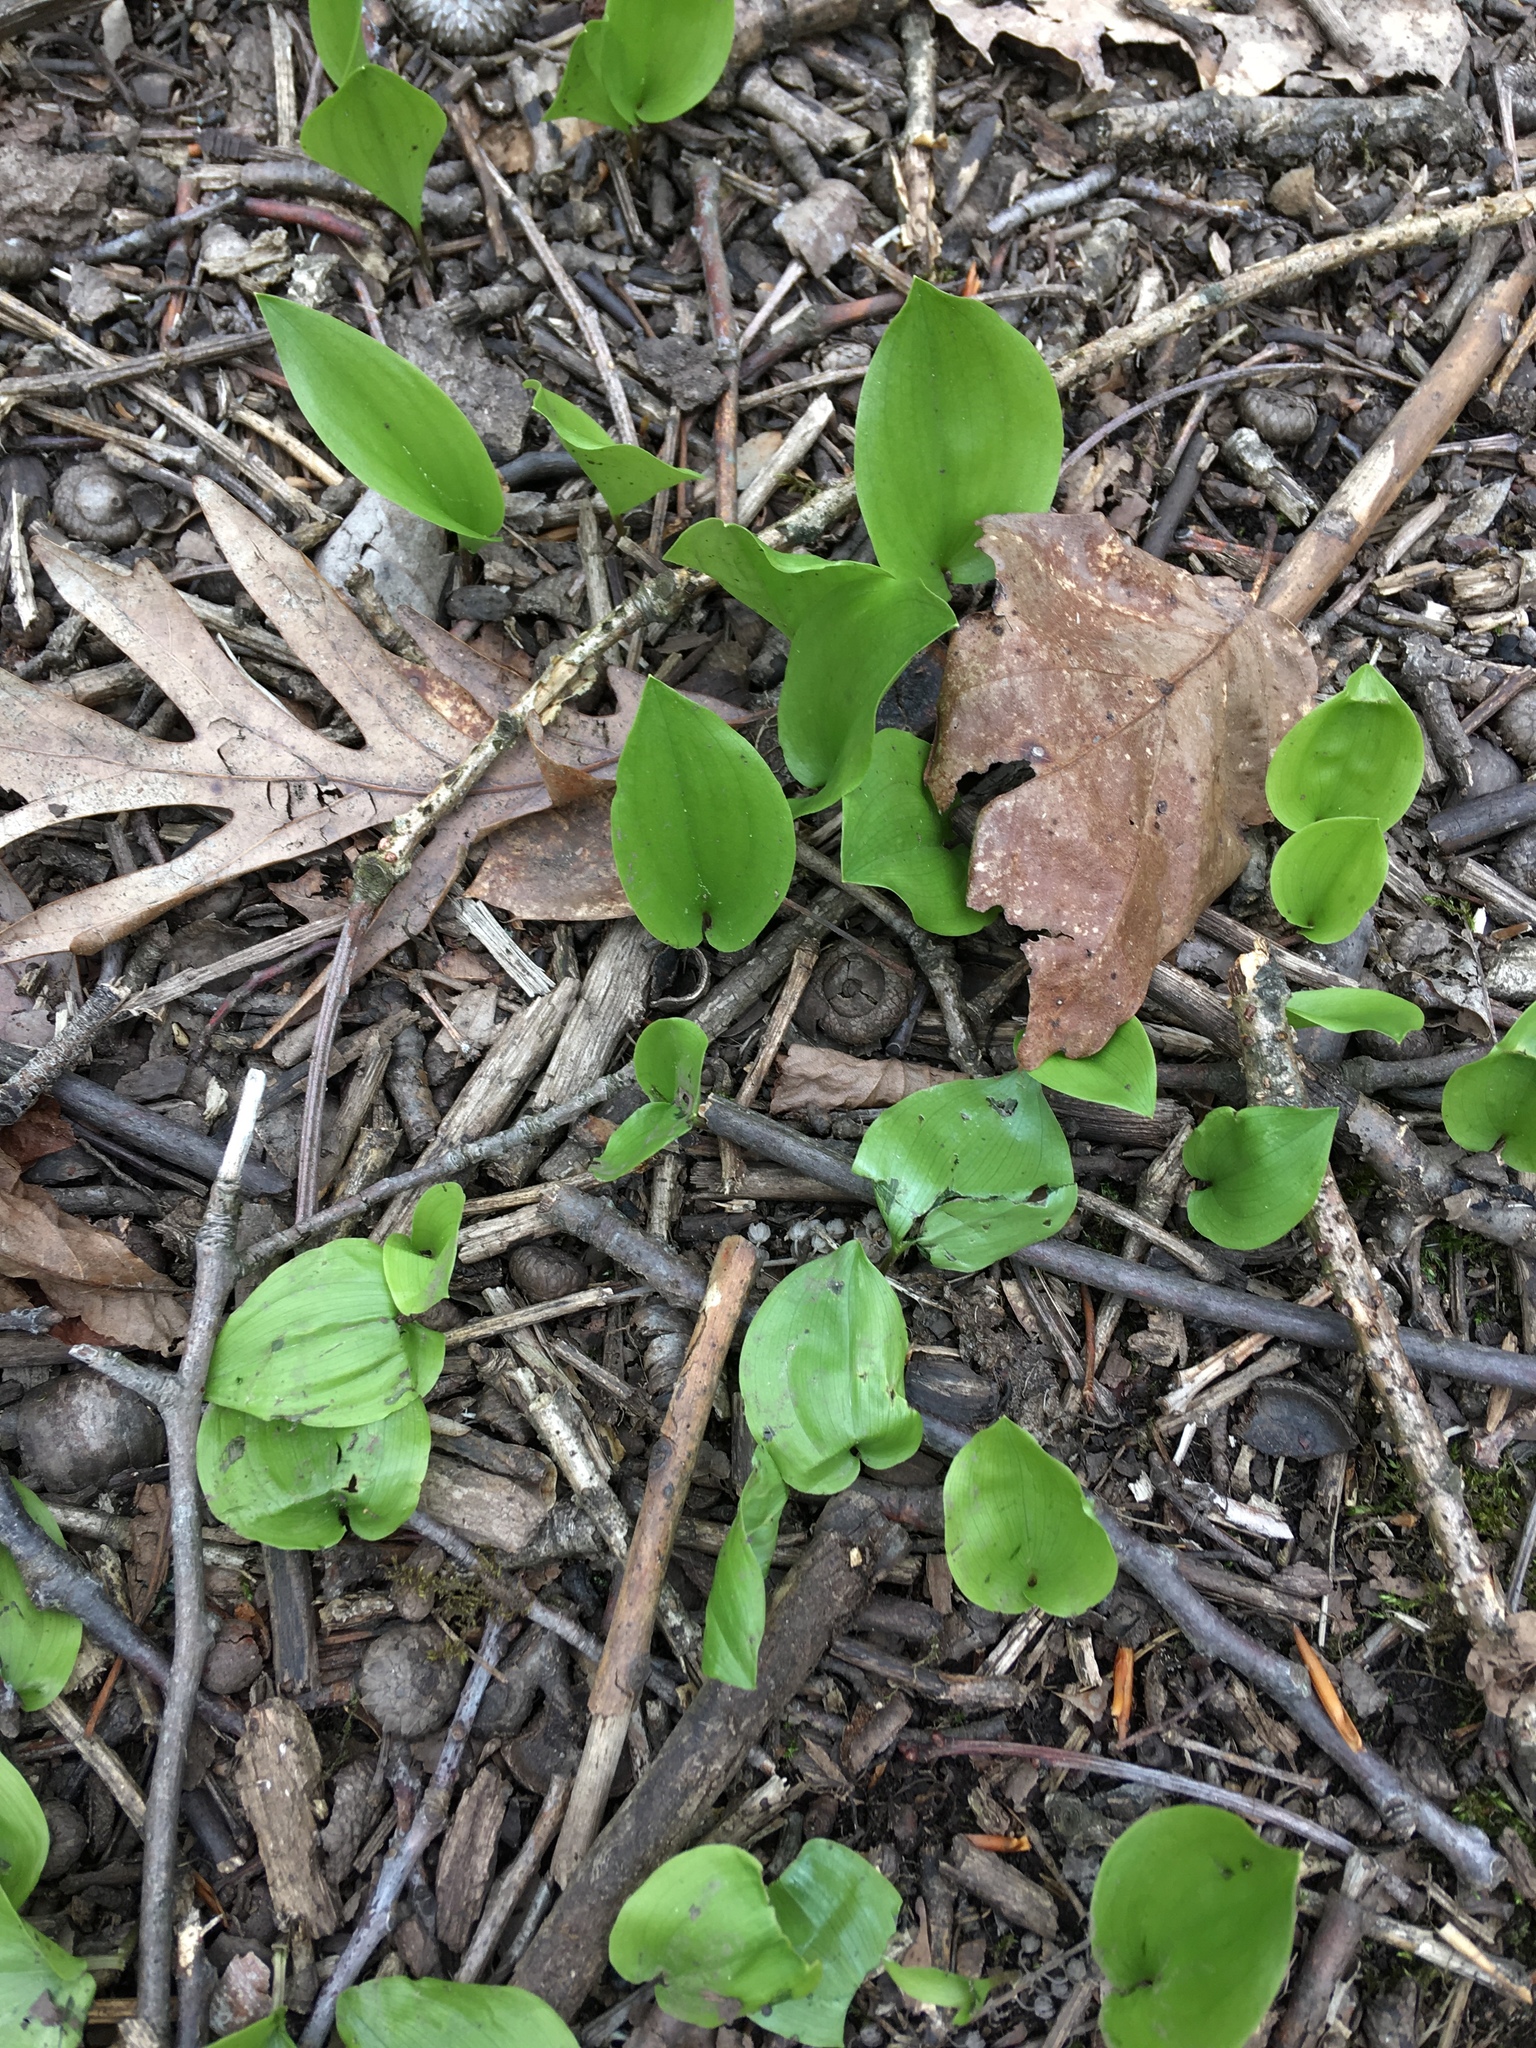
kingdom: Plantae
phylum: Tracheophyta
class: Liliopsida
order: Asparagales
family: Asparagaceae
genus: Maianthemum
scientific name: Maianthemum canadense
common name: False lily-of-the-valley
